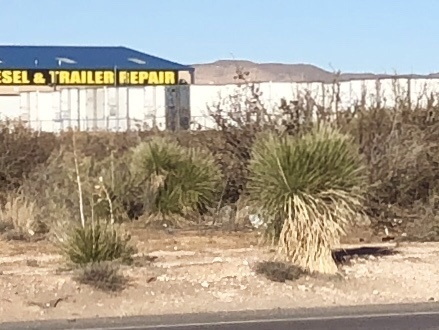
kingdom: Plantae
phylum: Tracheophyta
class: Liliopsida
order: Asparagales
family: Asparagaceae
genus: Yucca
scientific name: Yucca elata
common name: Palmella
